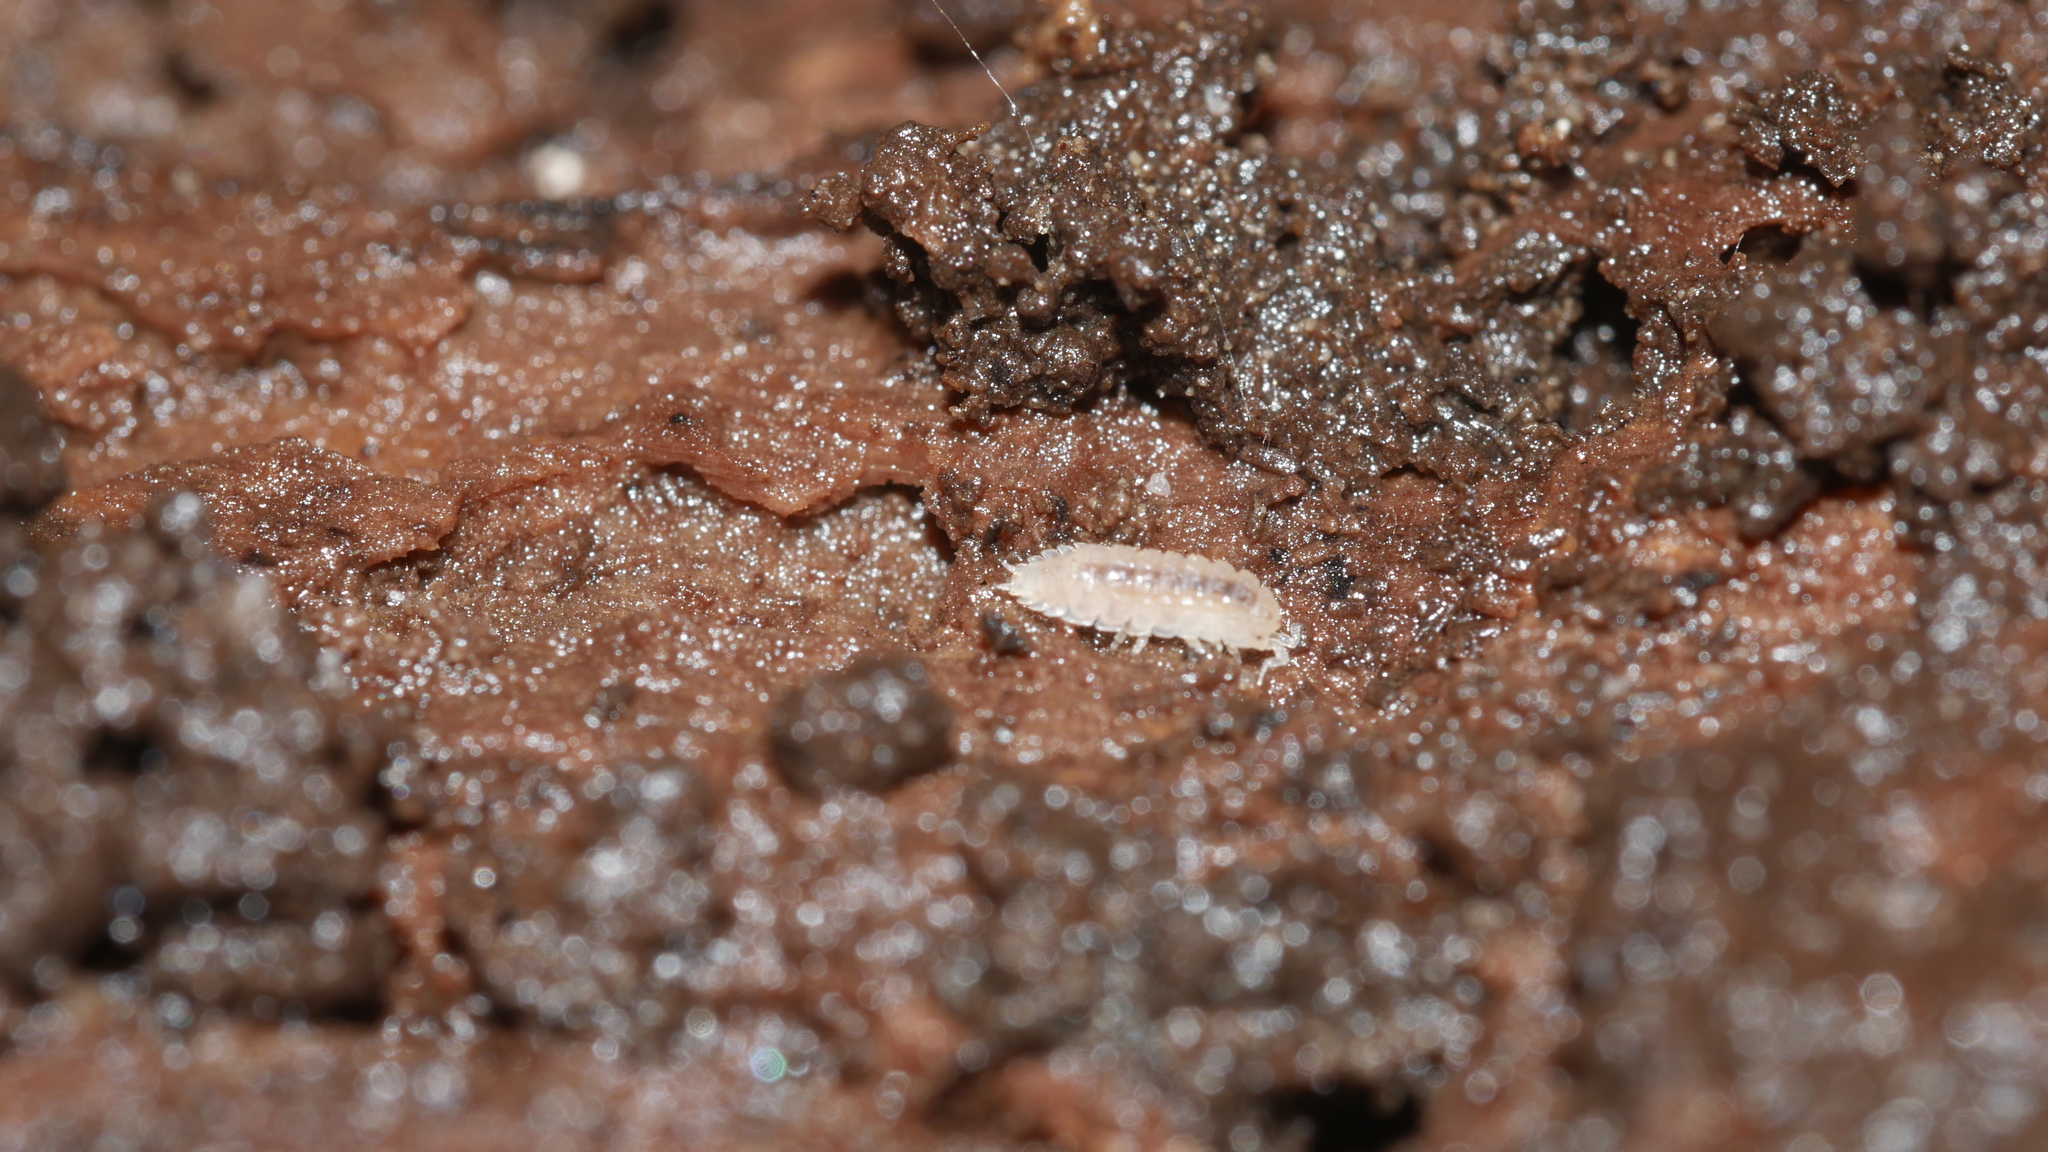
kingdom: Animalia
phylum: Arthropoda
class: Malacostraca
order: Isopoda
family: Trichoniscidae
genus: Haplophthalmus
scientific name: Haplophthalmus danicus
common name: Pillbug
